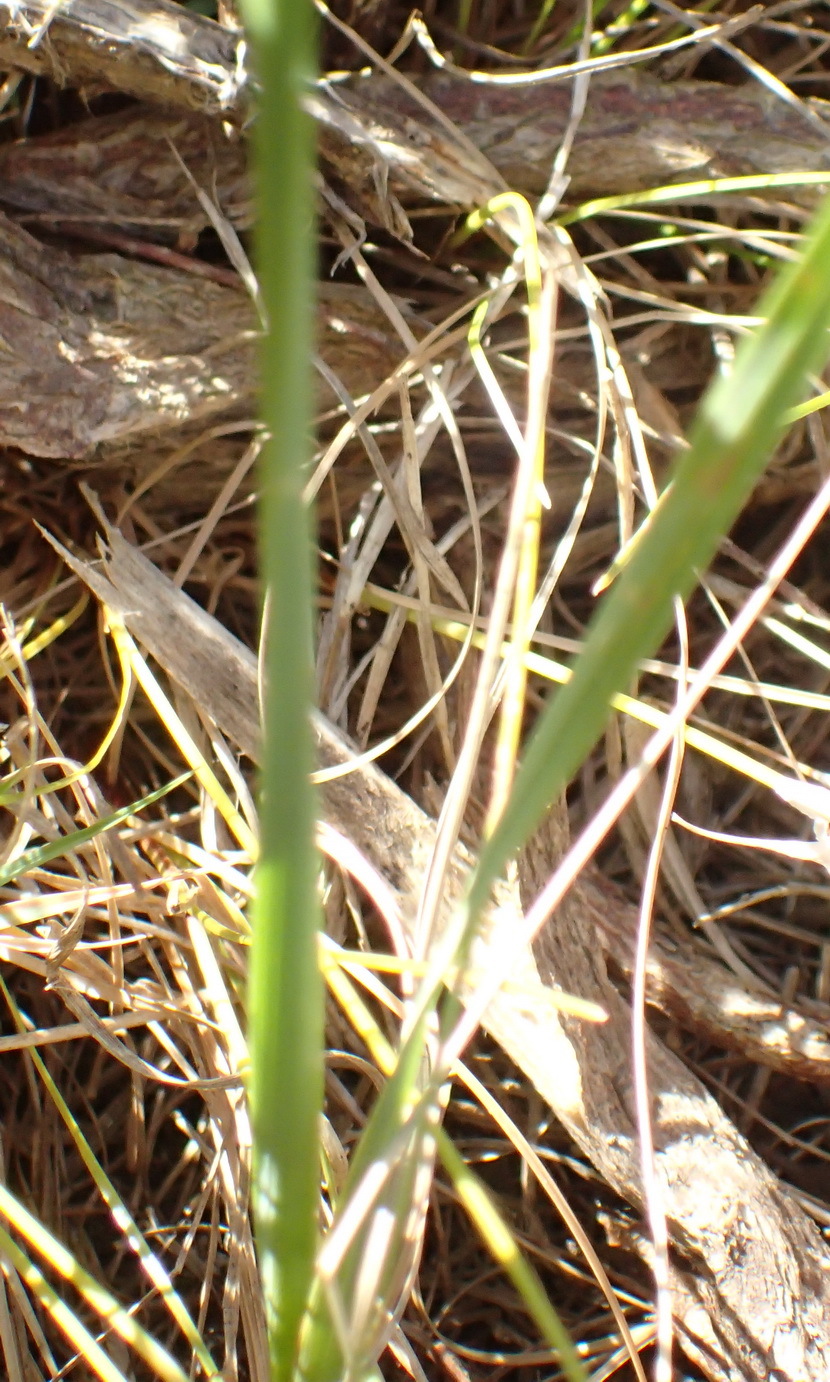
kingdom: Plantae
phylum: Tracheophyta
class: Liliopsida
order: Asparagales
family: Iridaceae
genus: Ixia
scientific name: Ixia orientalis
